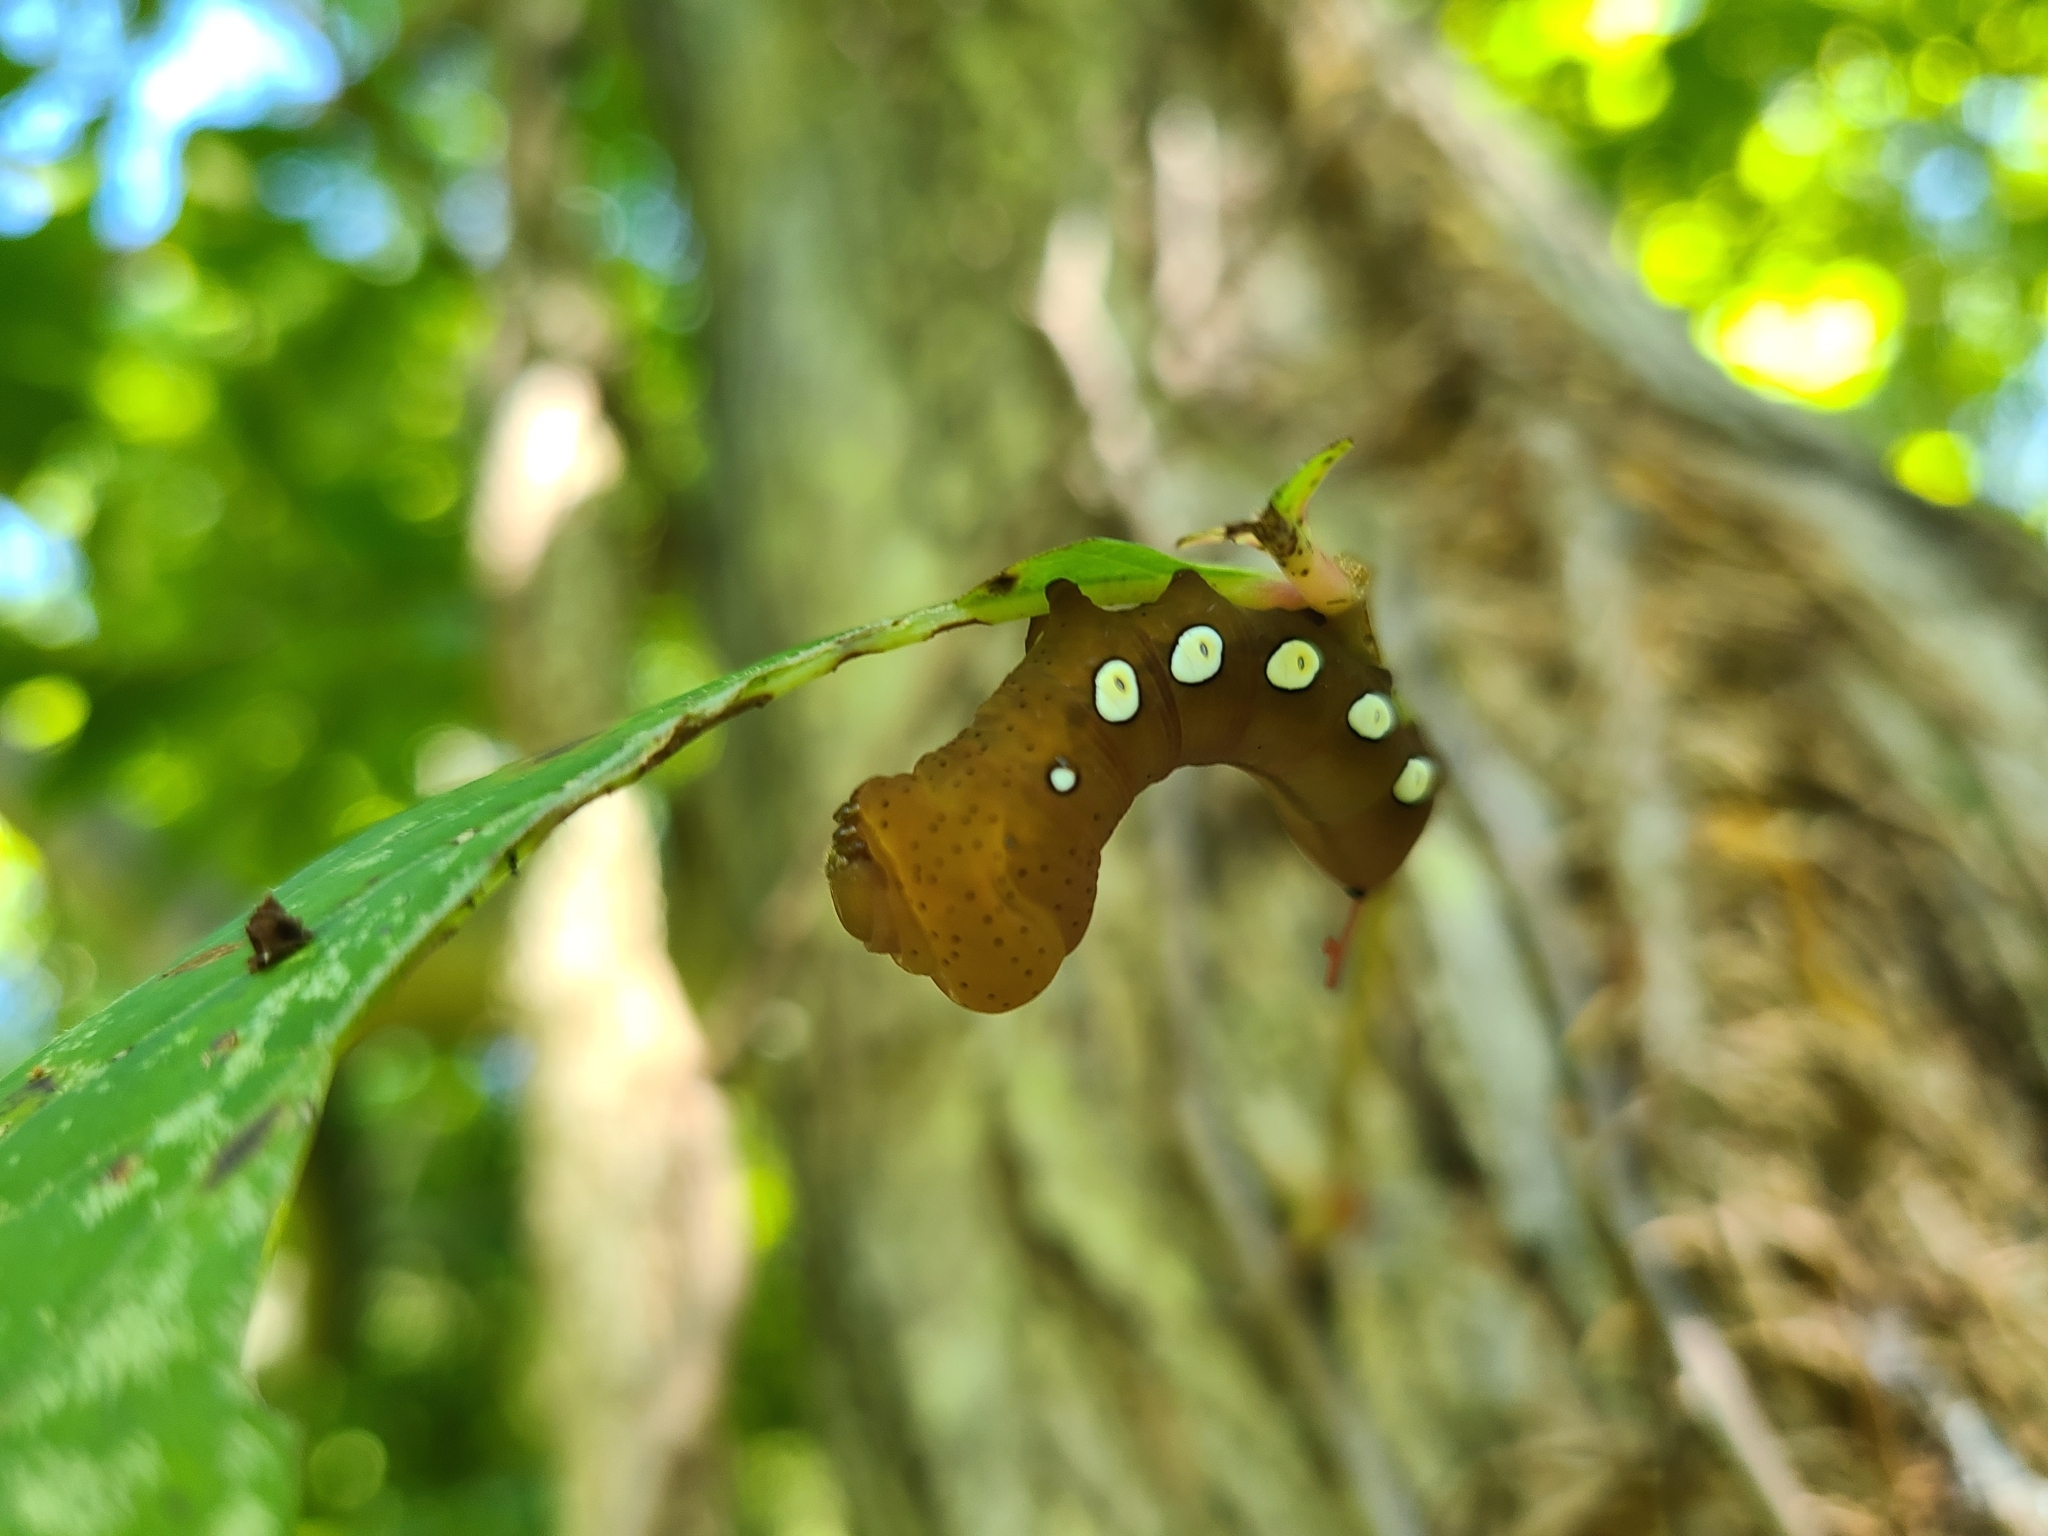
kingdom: Animalia
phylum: Arthropoda
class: Insecta
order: Lepidoptera
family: Sphingidae
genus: Eumorpha
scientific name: Eumorpha pandorus
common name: Pandora sphinx
